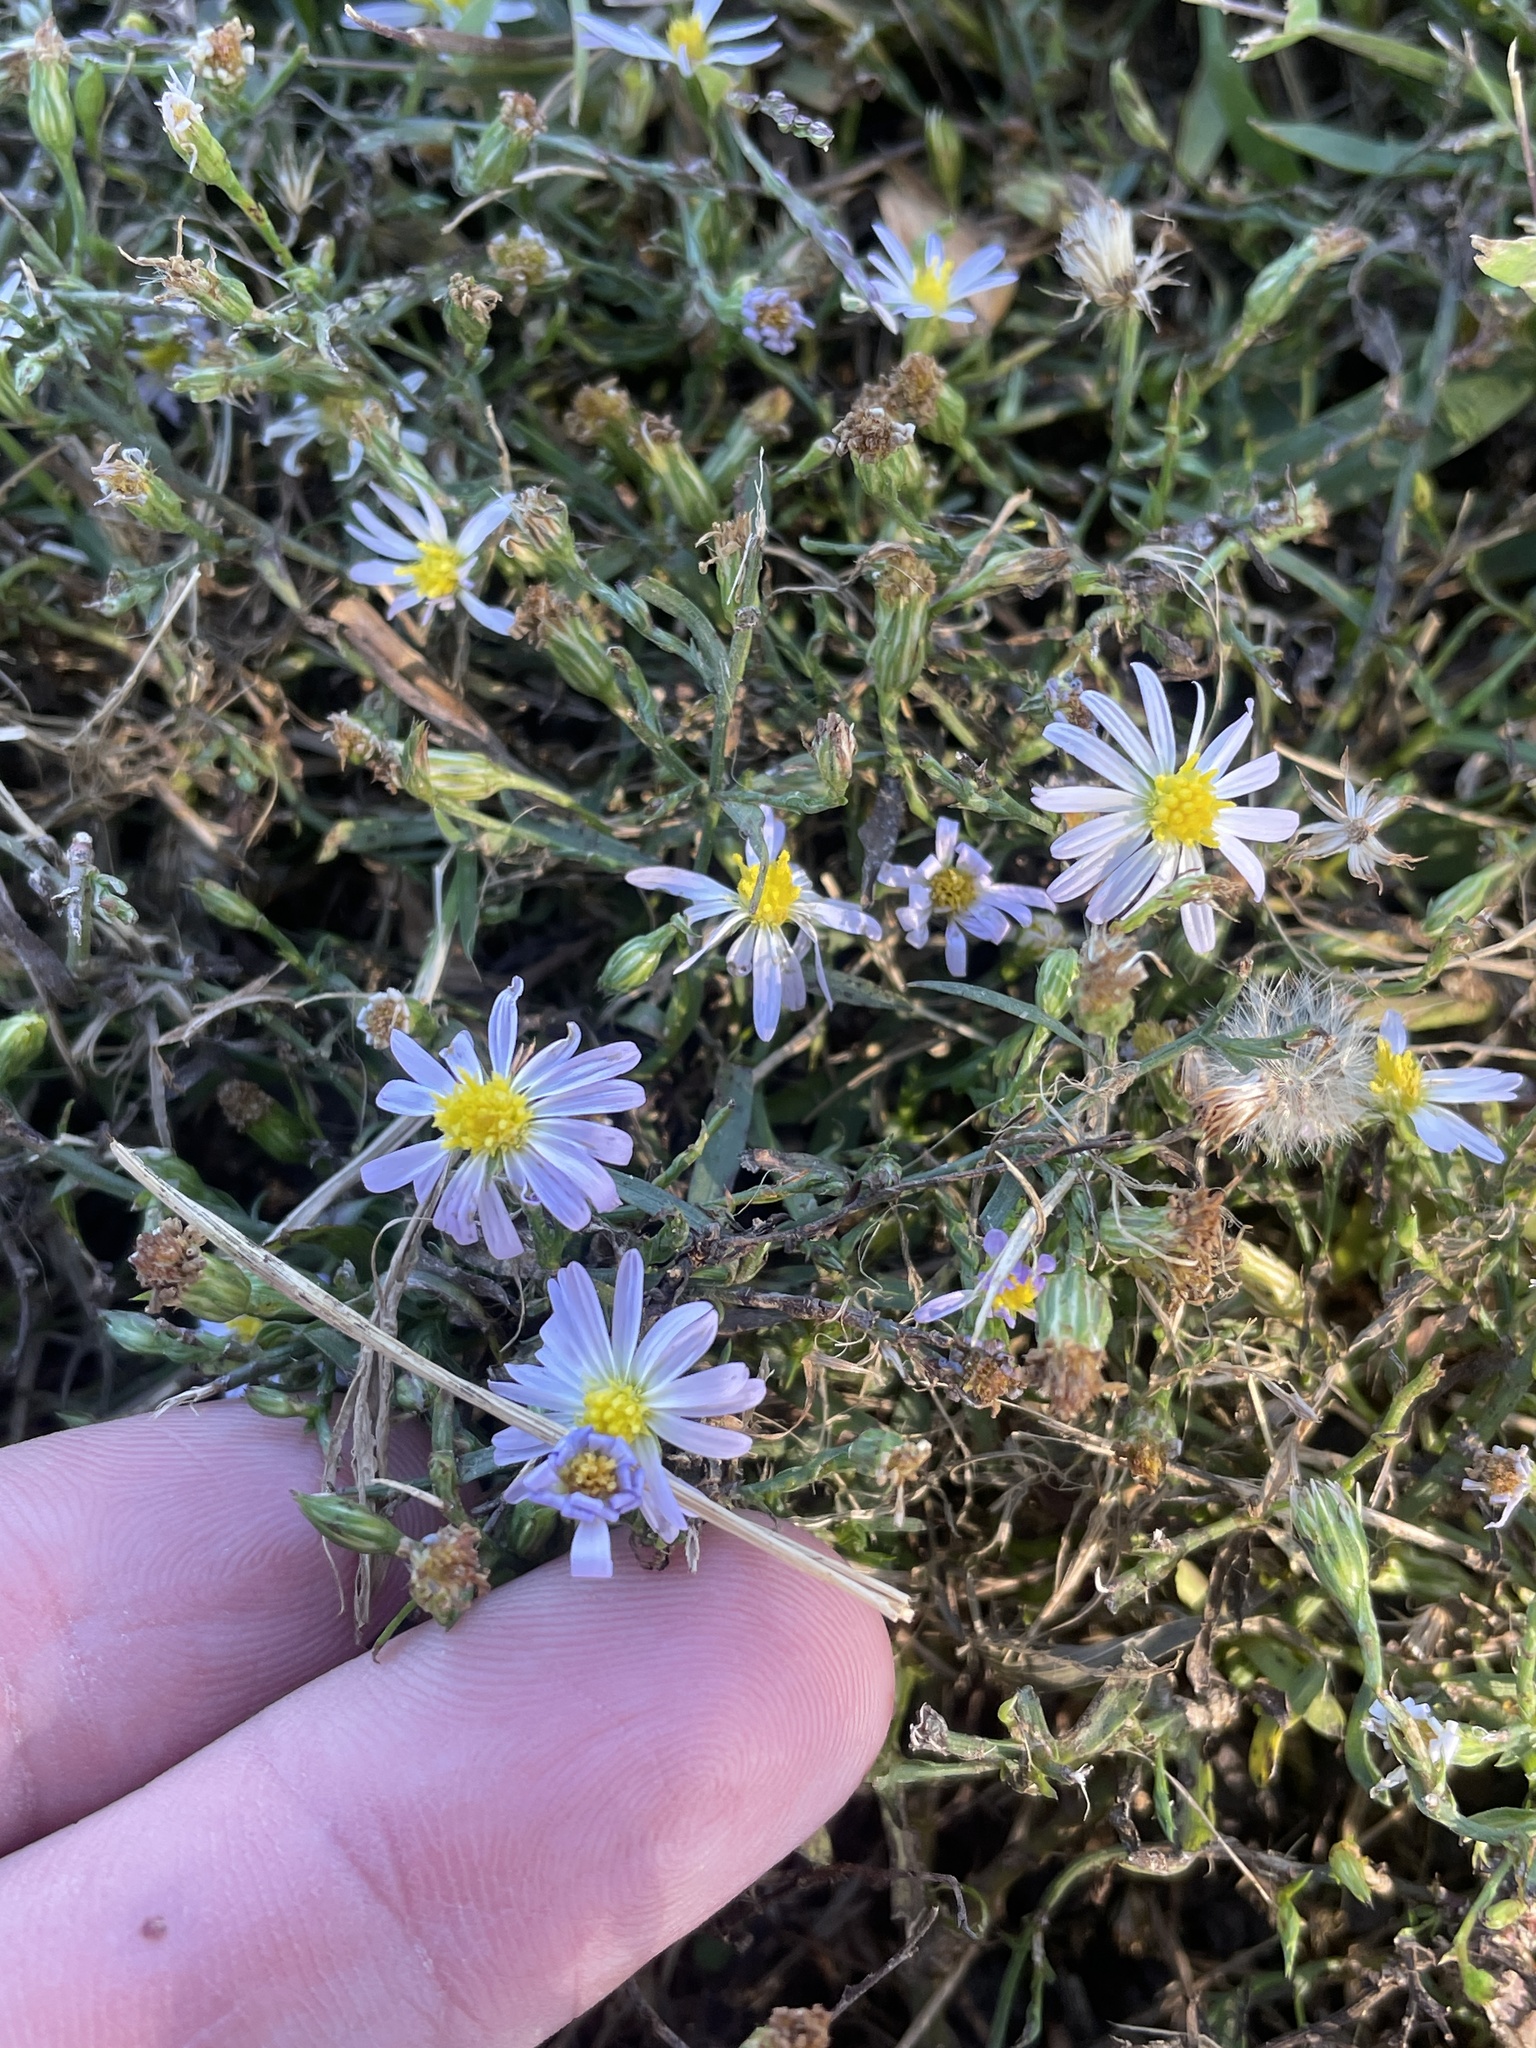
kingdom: Plantae
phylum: Tracheophyta
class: Magnoliopsida
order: Asterales
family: Asteraceae
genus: Symphyotrichum
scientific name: Symphyotrichum divaricatum
